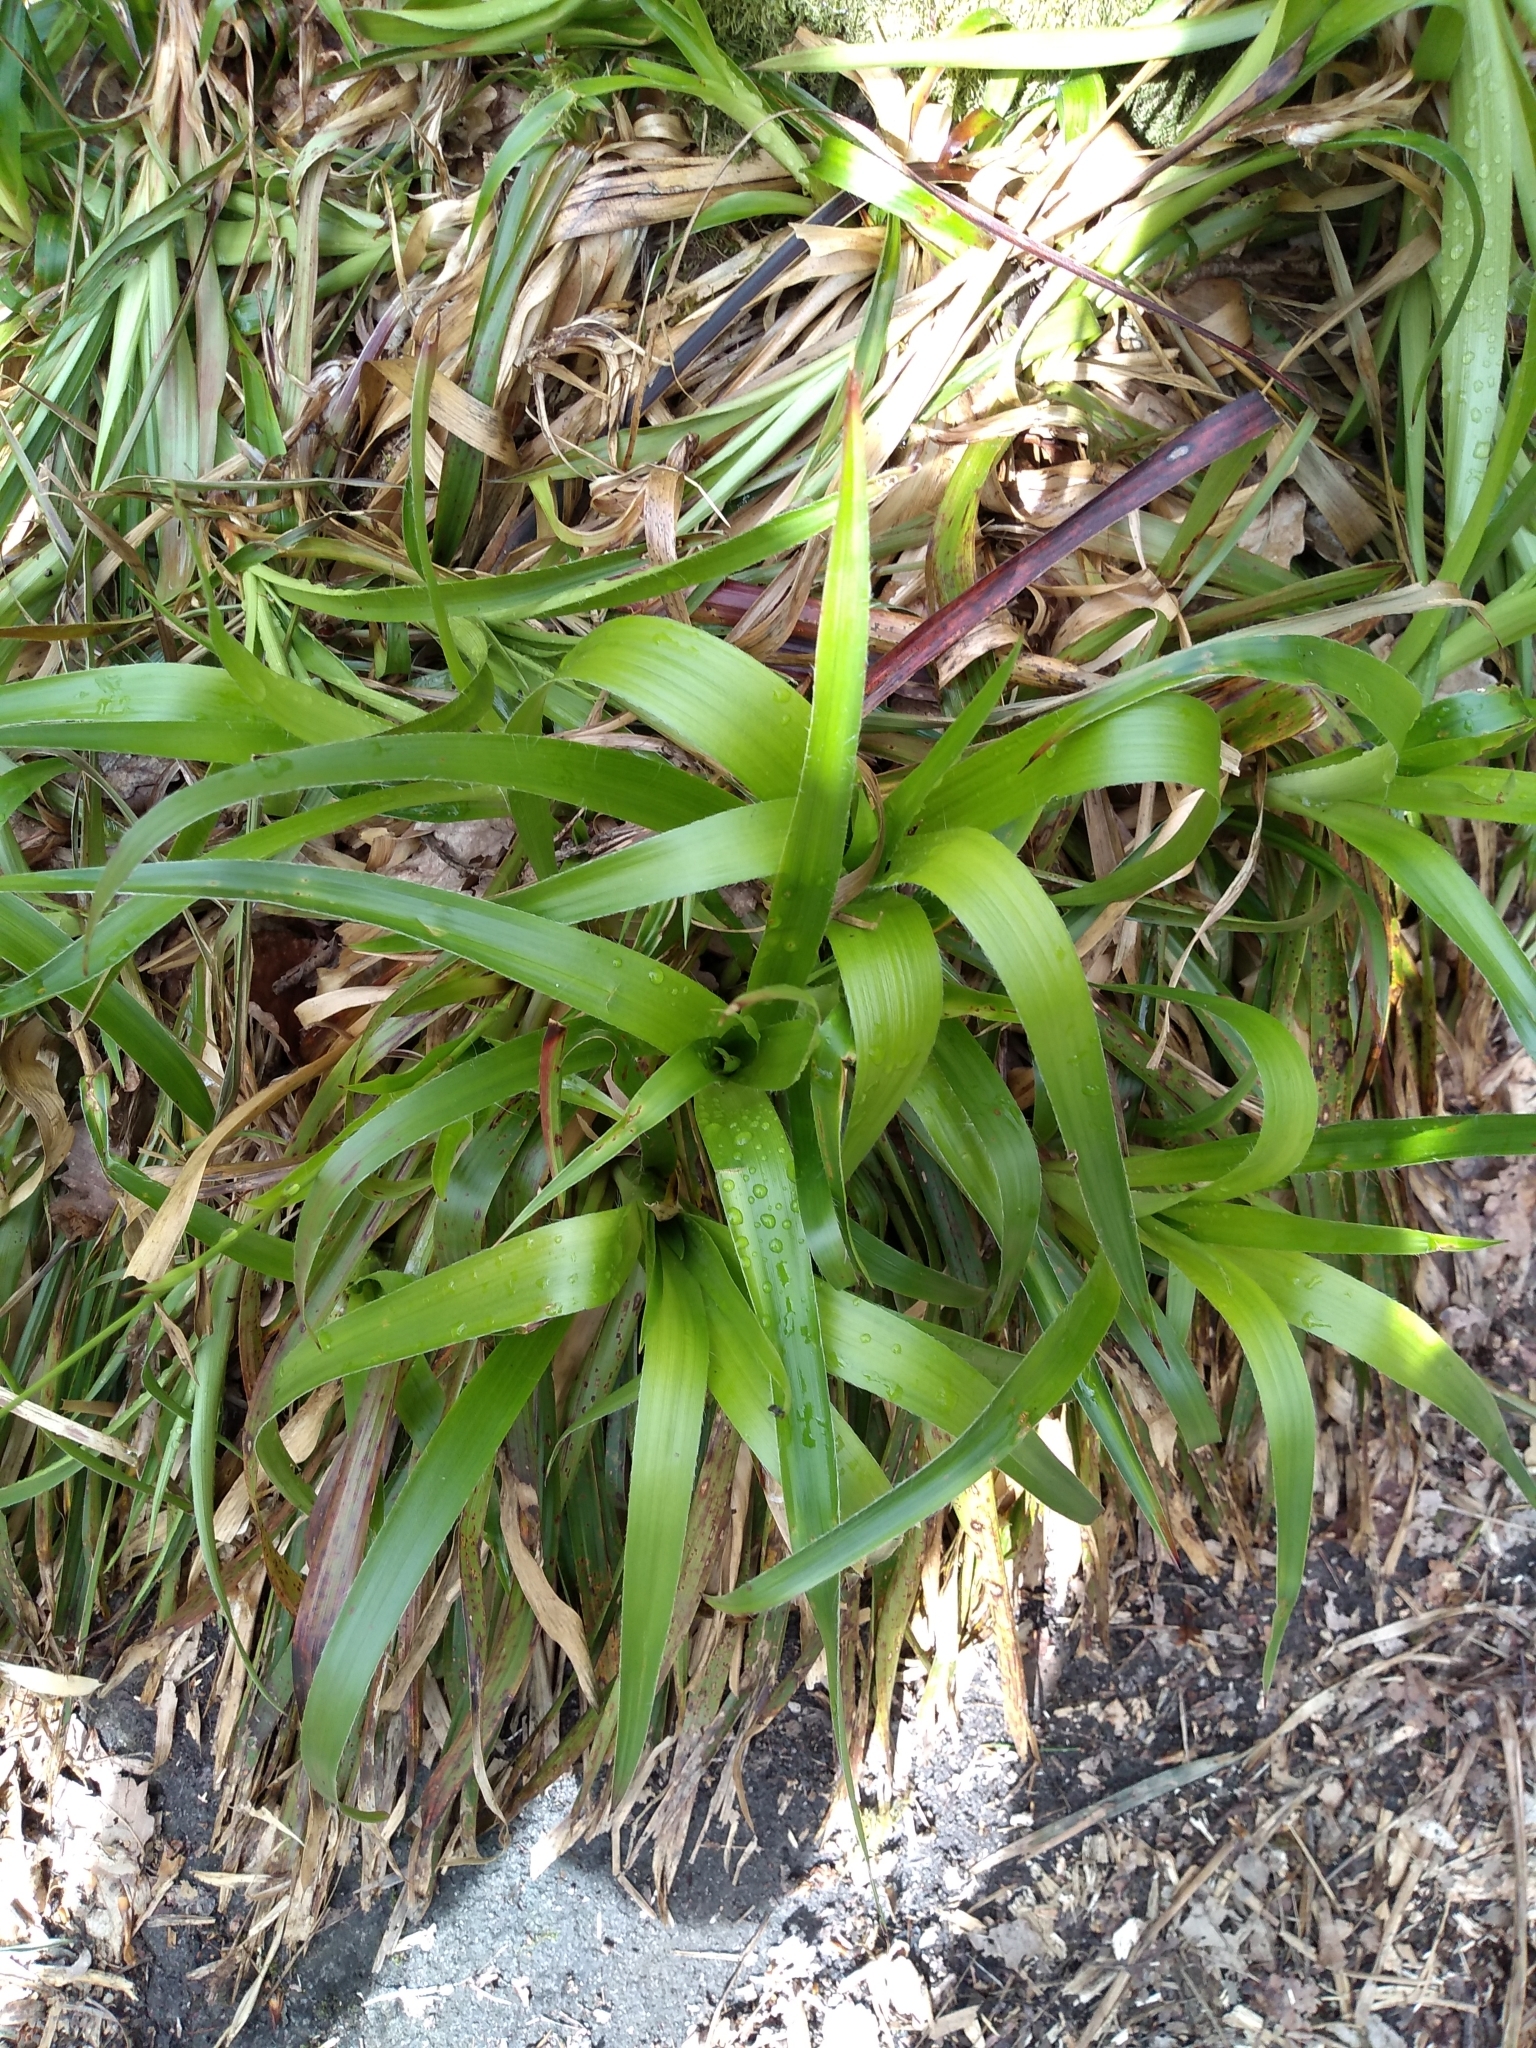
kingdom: Plantae
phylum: Tracheophyta
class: Liliopsida
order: Poales
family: Juncaceae
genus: Luzula
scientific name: Luzula sylvatica
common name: Great wood-rush
